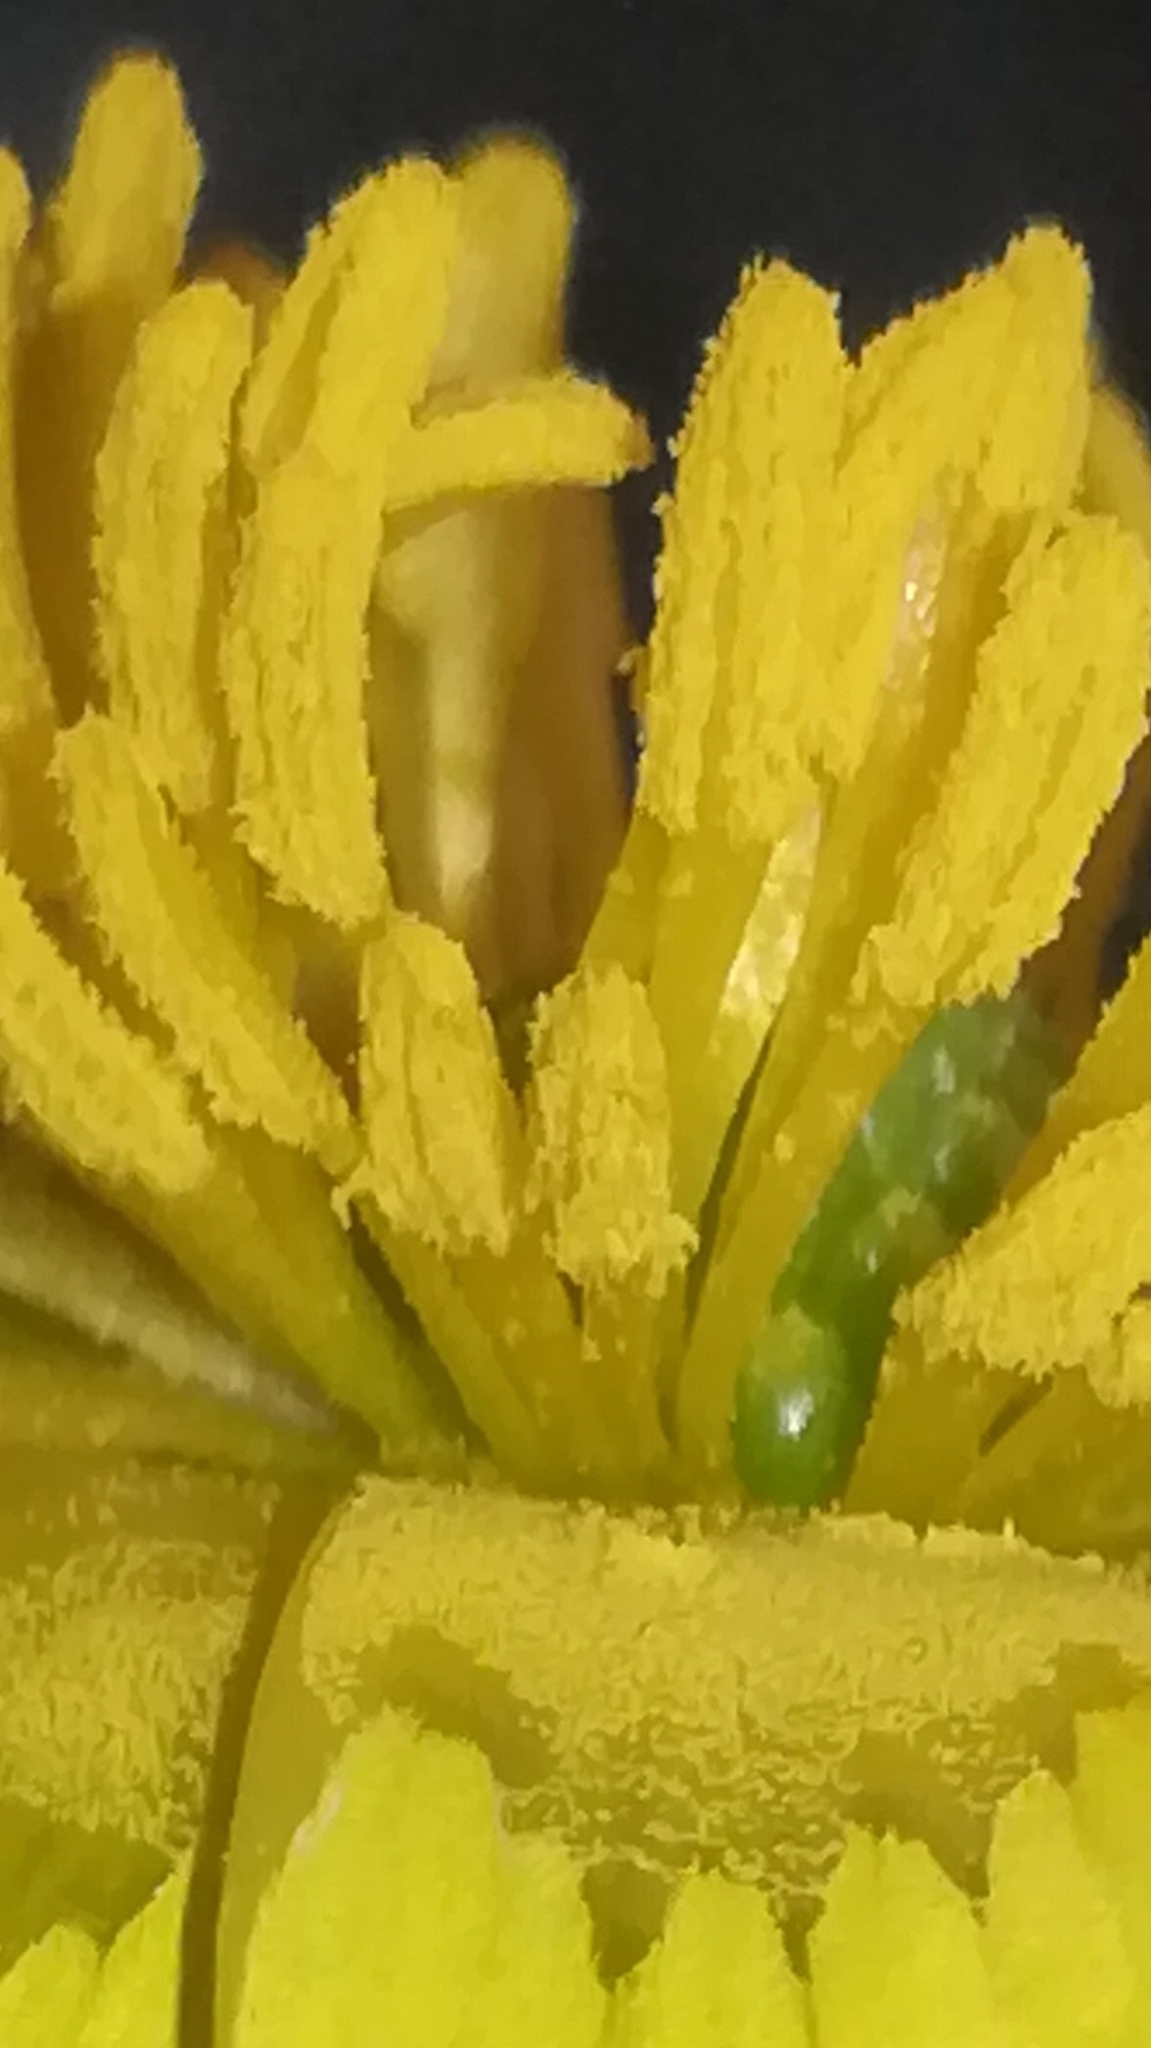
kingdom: Plantae
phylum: Tracheophyta
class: Magnoliopsida
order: Ranunculales
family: Ranunculaceae
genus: Ficaria
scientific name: Ficaria verna
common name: Lesser celandine
